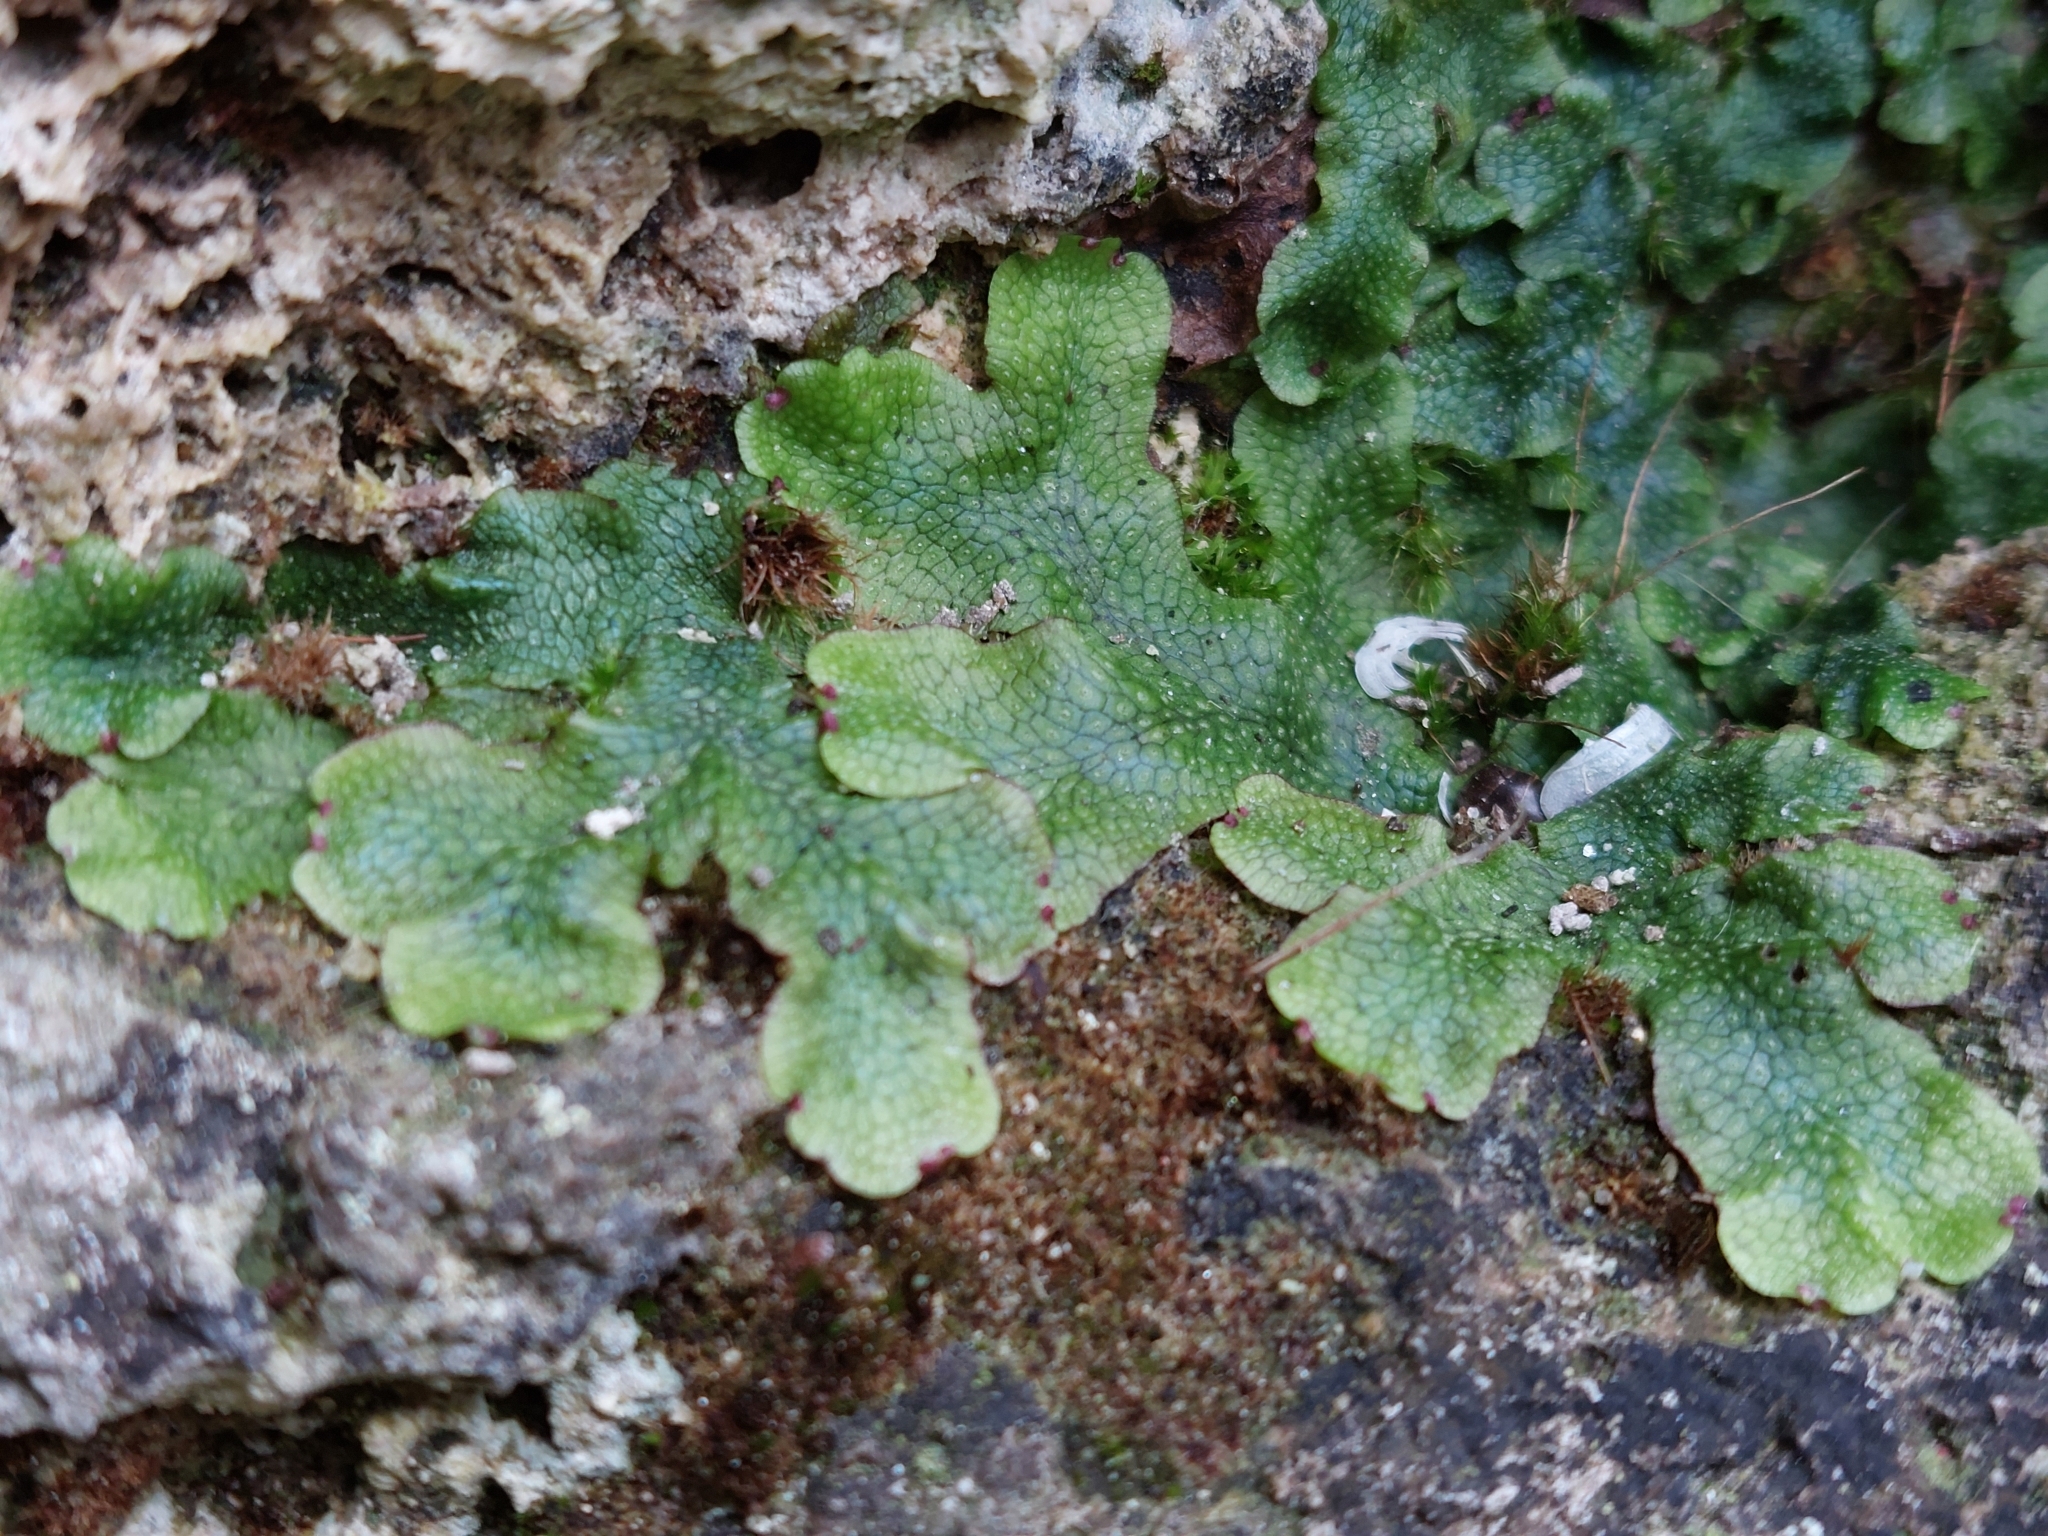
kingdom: Plantae
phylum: Marchantiophyta
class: Marchantiopsida
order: Marchantiales
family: Conocephalaceae
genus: Conocephalum
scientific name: Conocephalum salebrosum
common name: Cat-tongue liverwort
